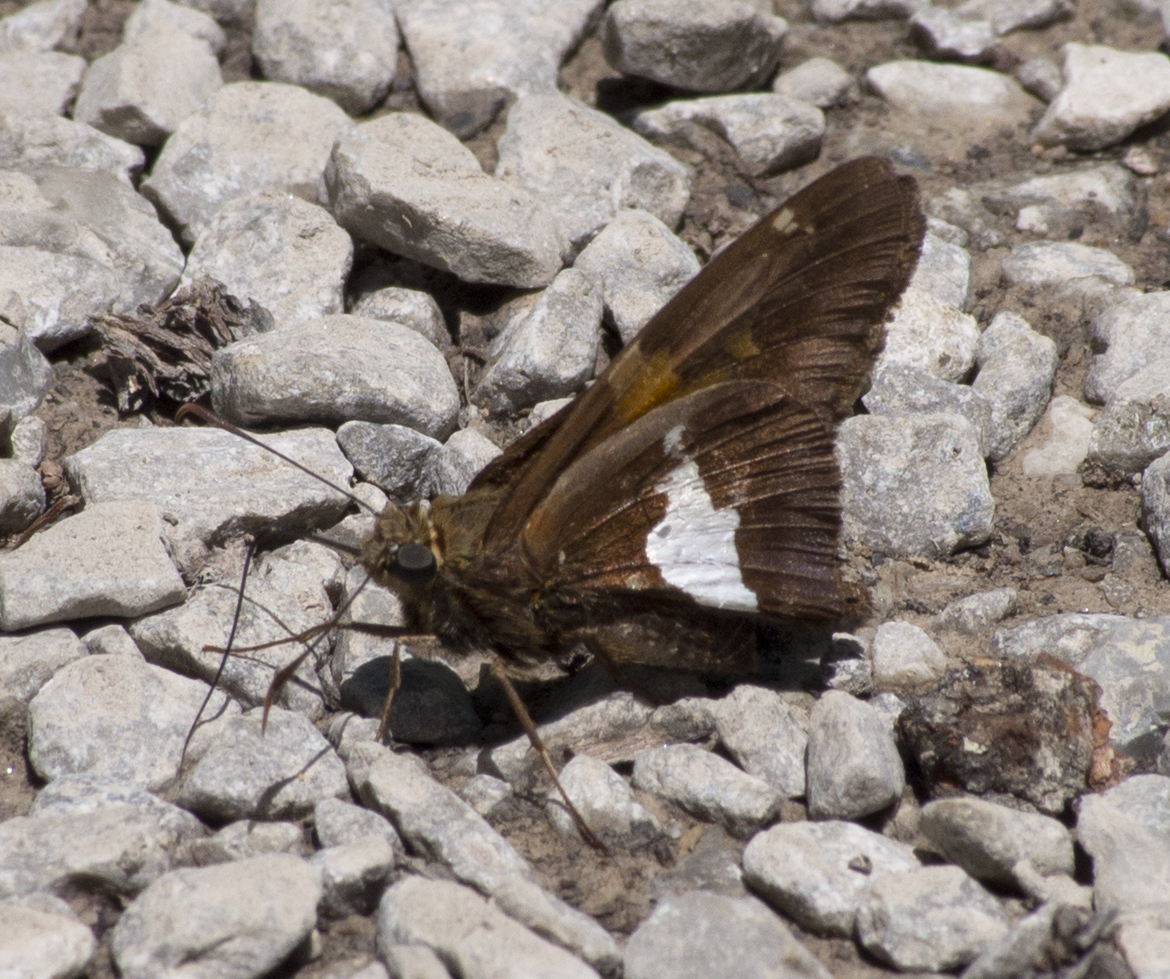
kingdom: Animalia
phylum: Arthropoda
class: Insecta
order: Lepidoptera
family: Hesperiidae
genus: Epargyreus
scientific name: Epargyreus clarus
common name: Silver-spotted skipper
